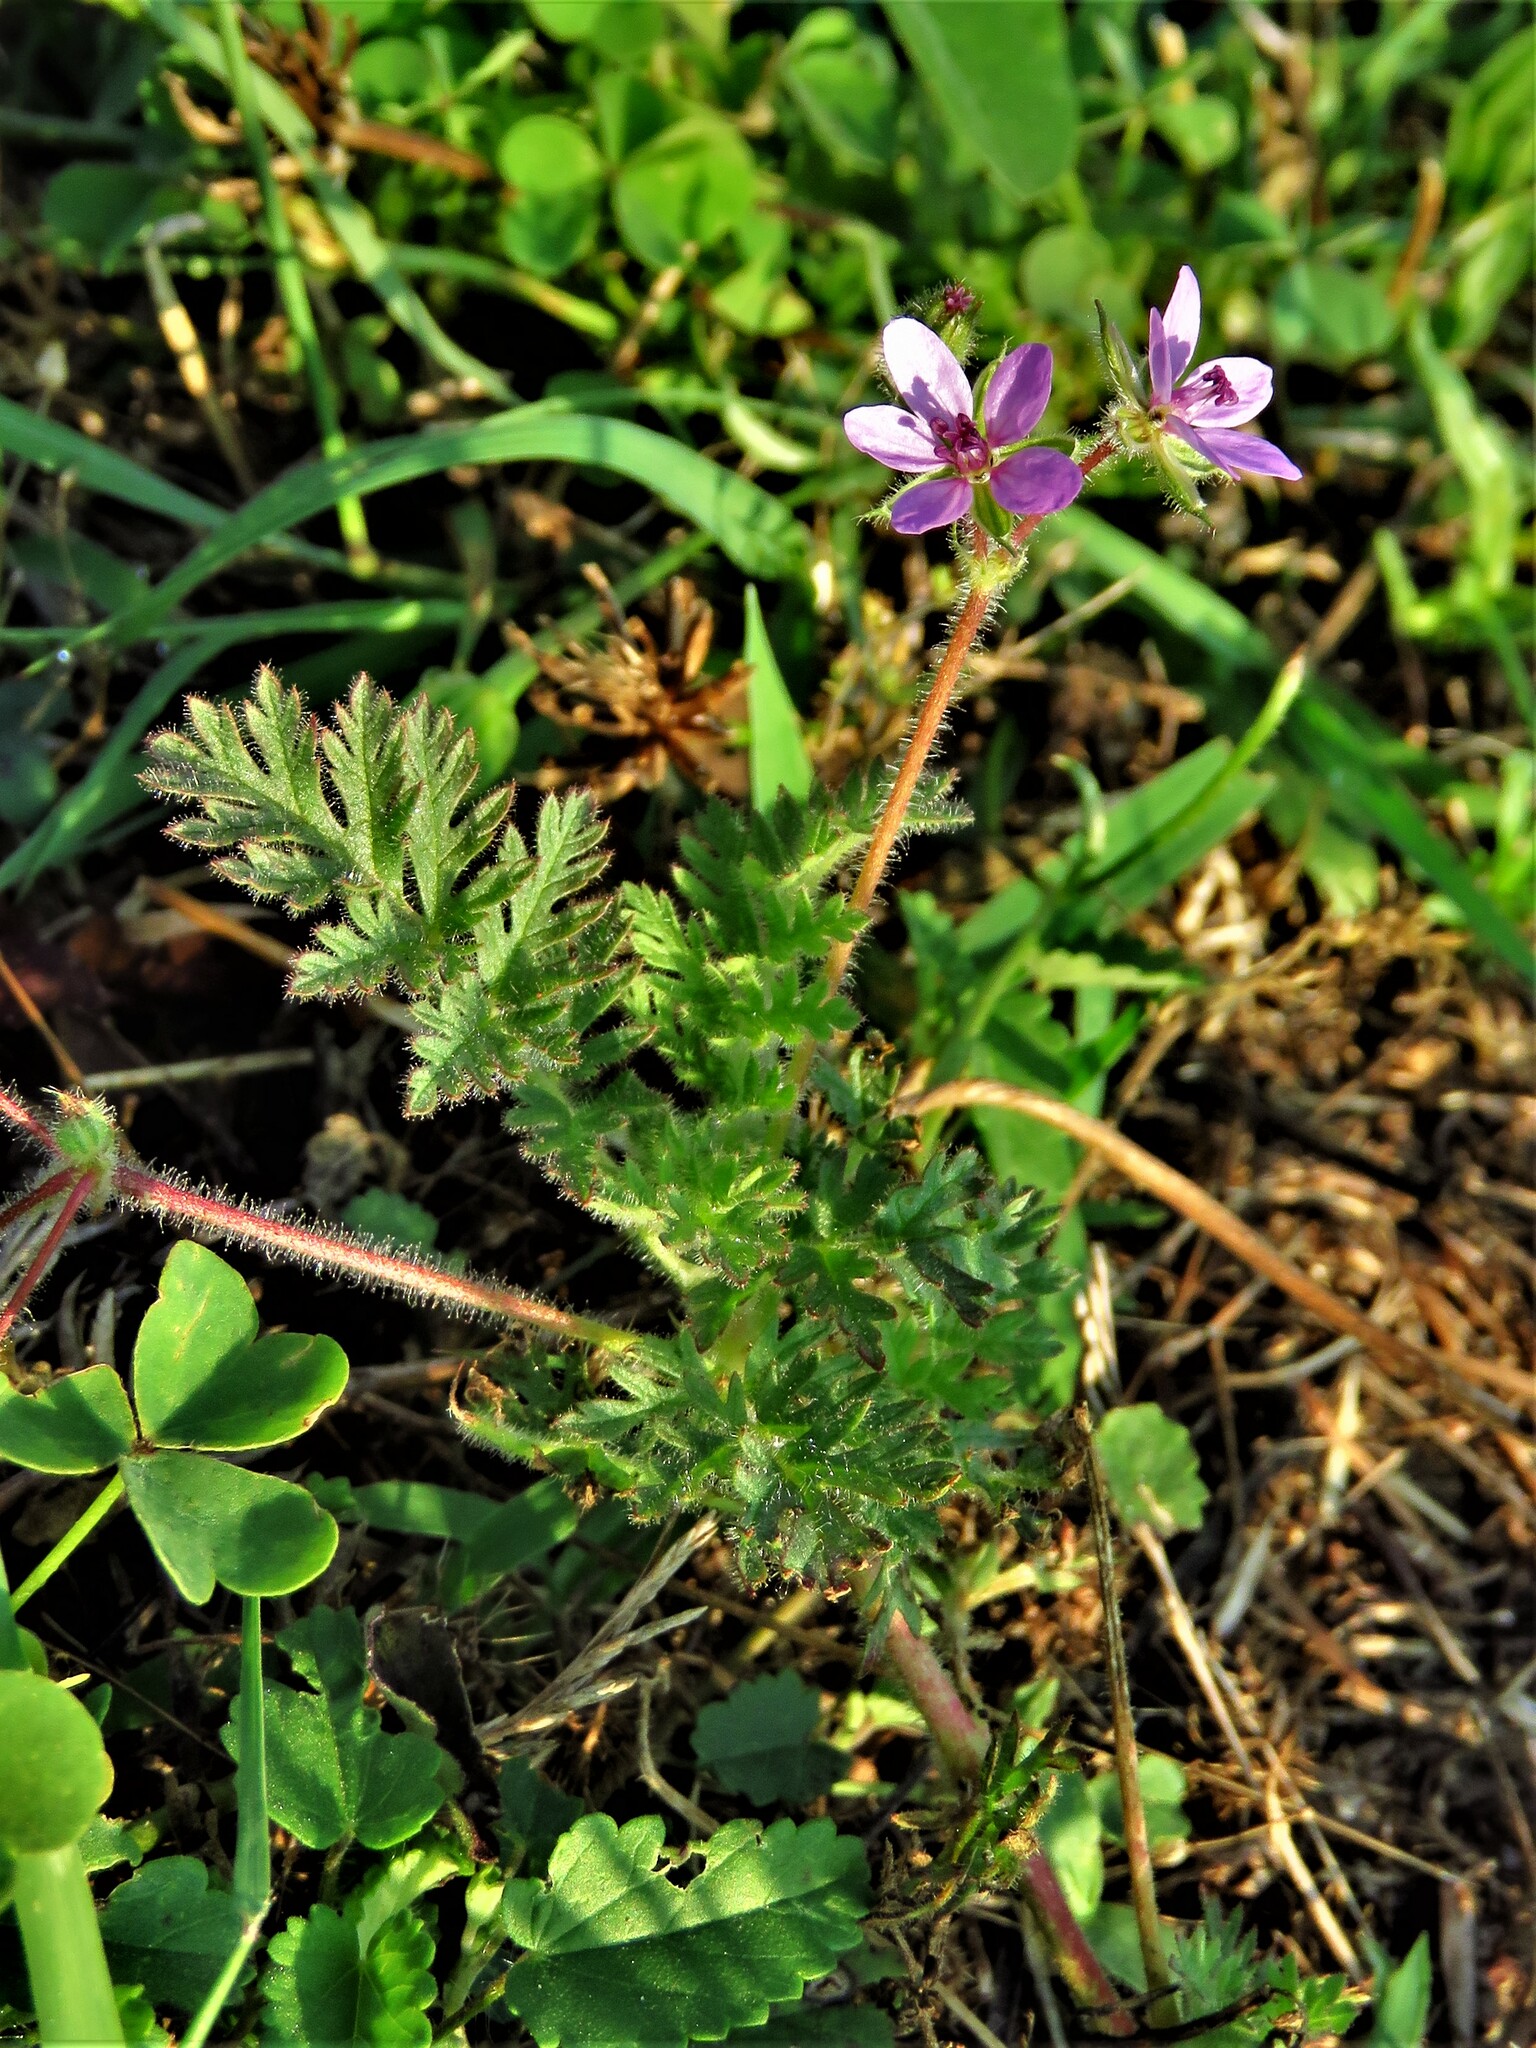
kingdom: Plantae
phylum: Tracheophyta
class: Magnoliopsida
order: Geraniales
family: Geraniaceae
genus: Erodium
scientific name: Erodium cicutarium
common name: Common stork's-bill
